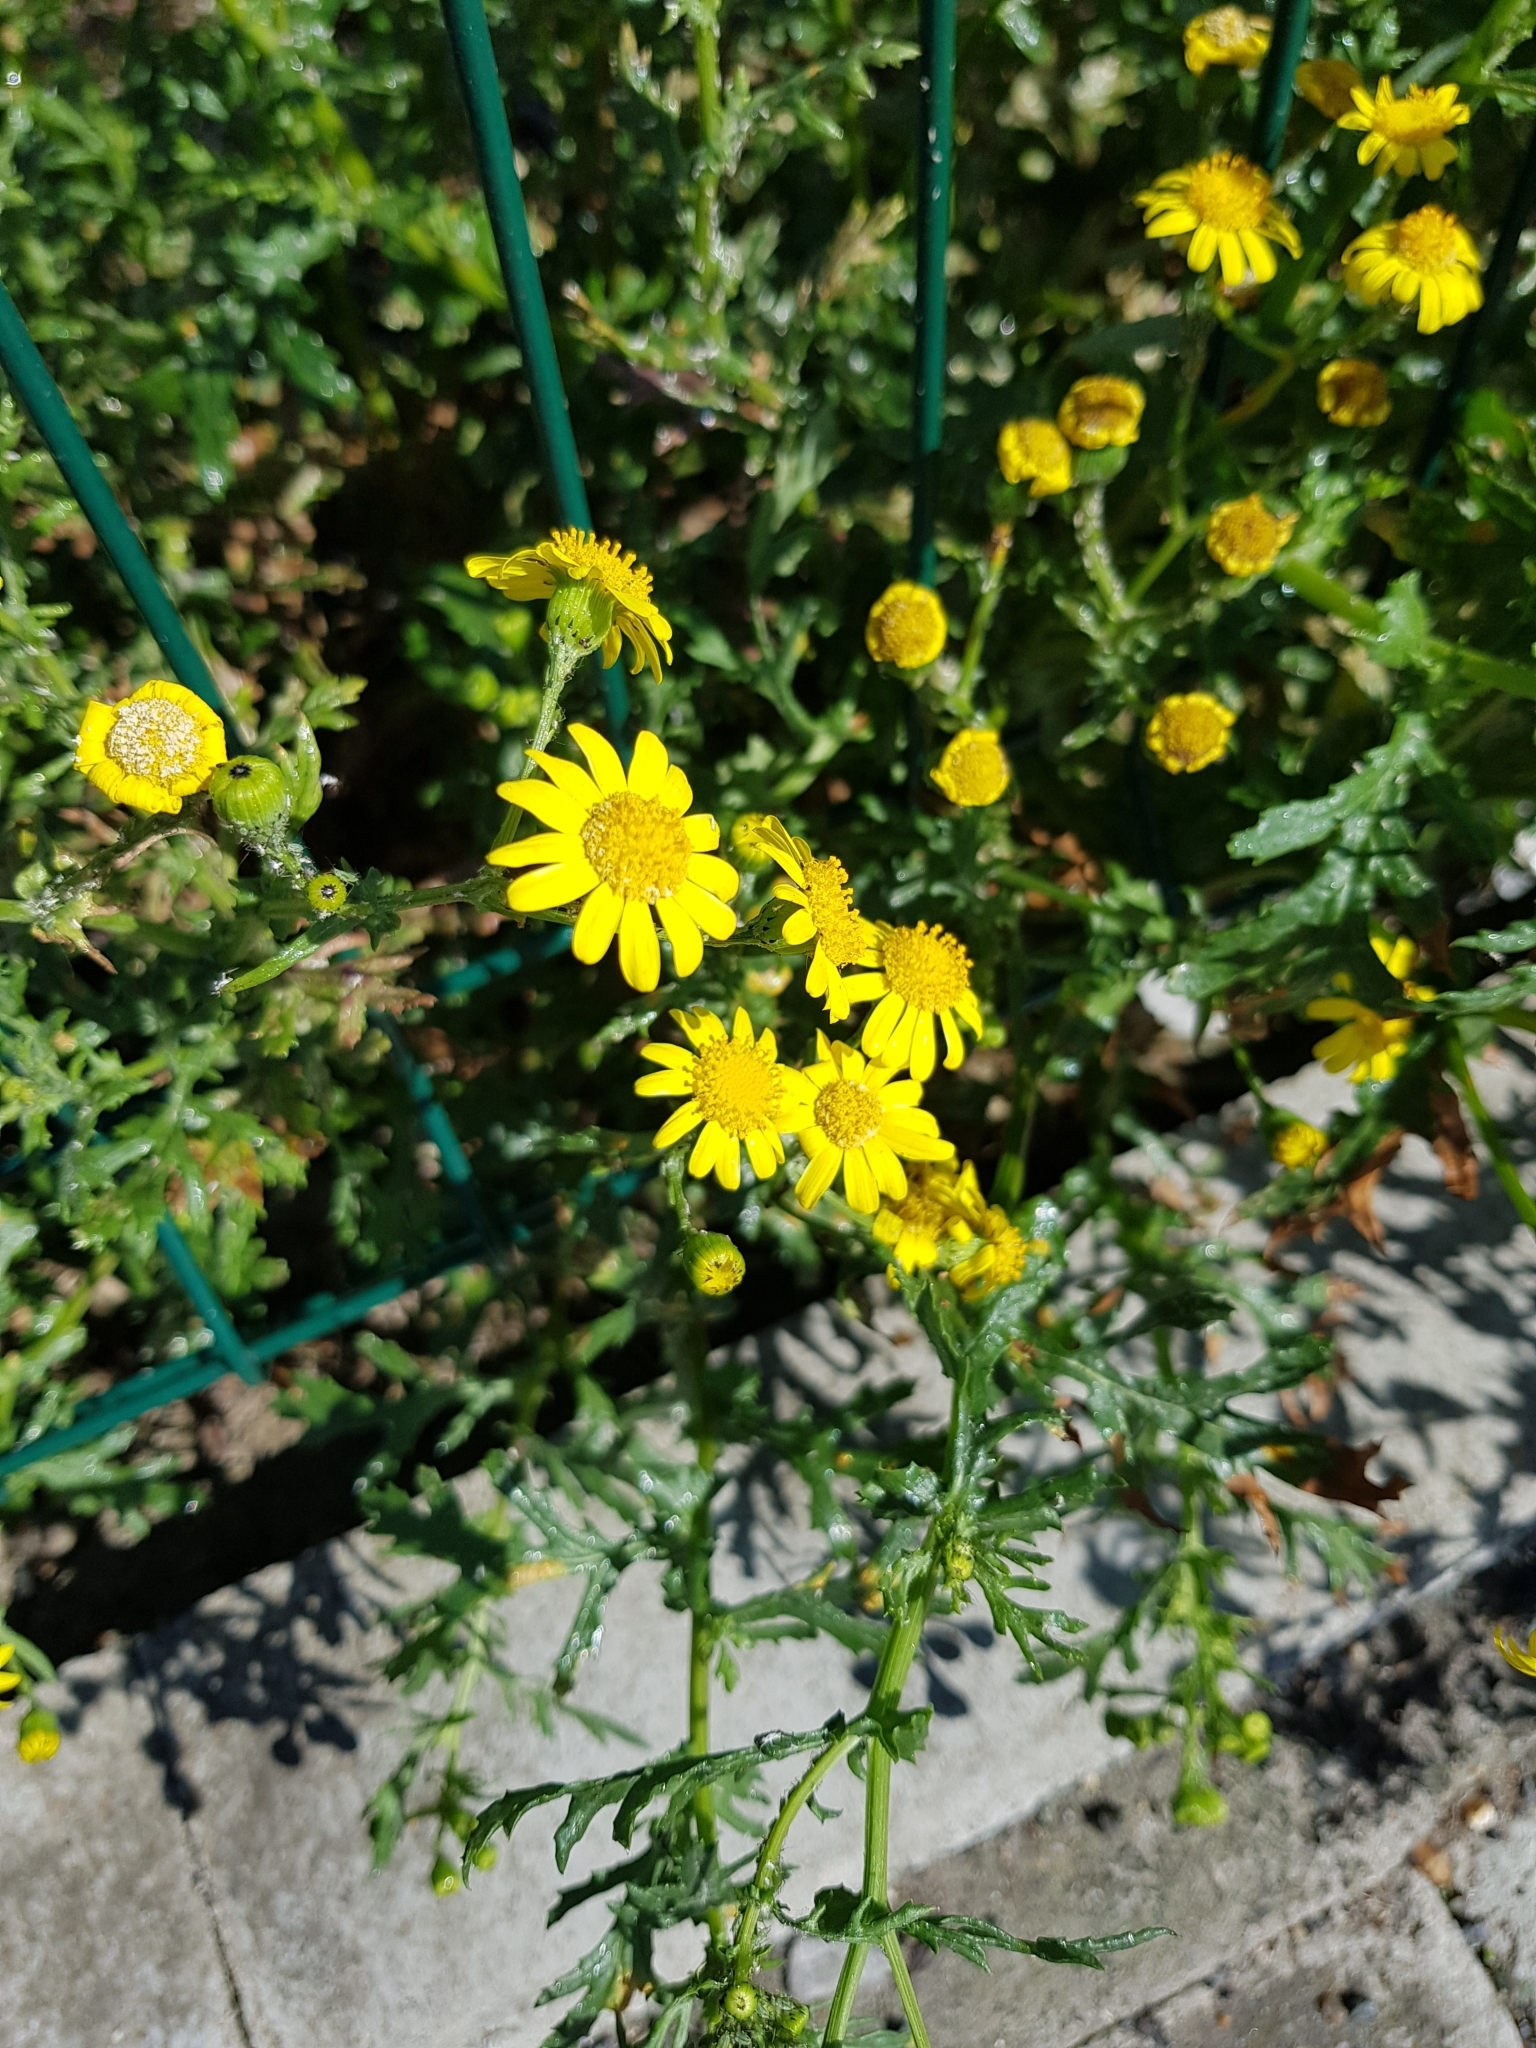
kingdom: Plantae
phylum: Tracheophyta
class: Magnoliopsida
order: Asterales
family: Asteraceae
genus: Senecio
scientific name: Senecio squalidus
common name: Oxford ragwort
